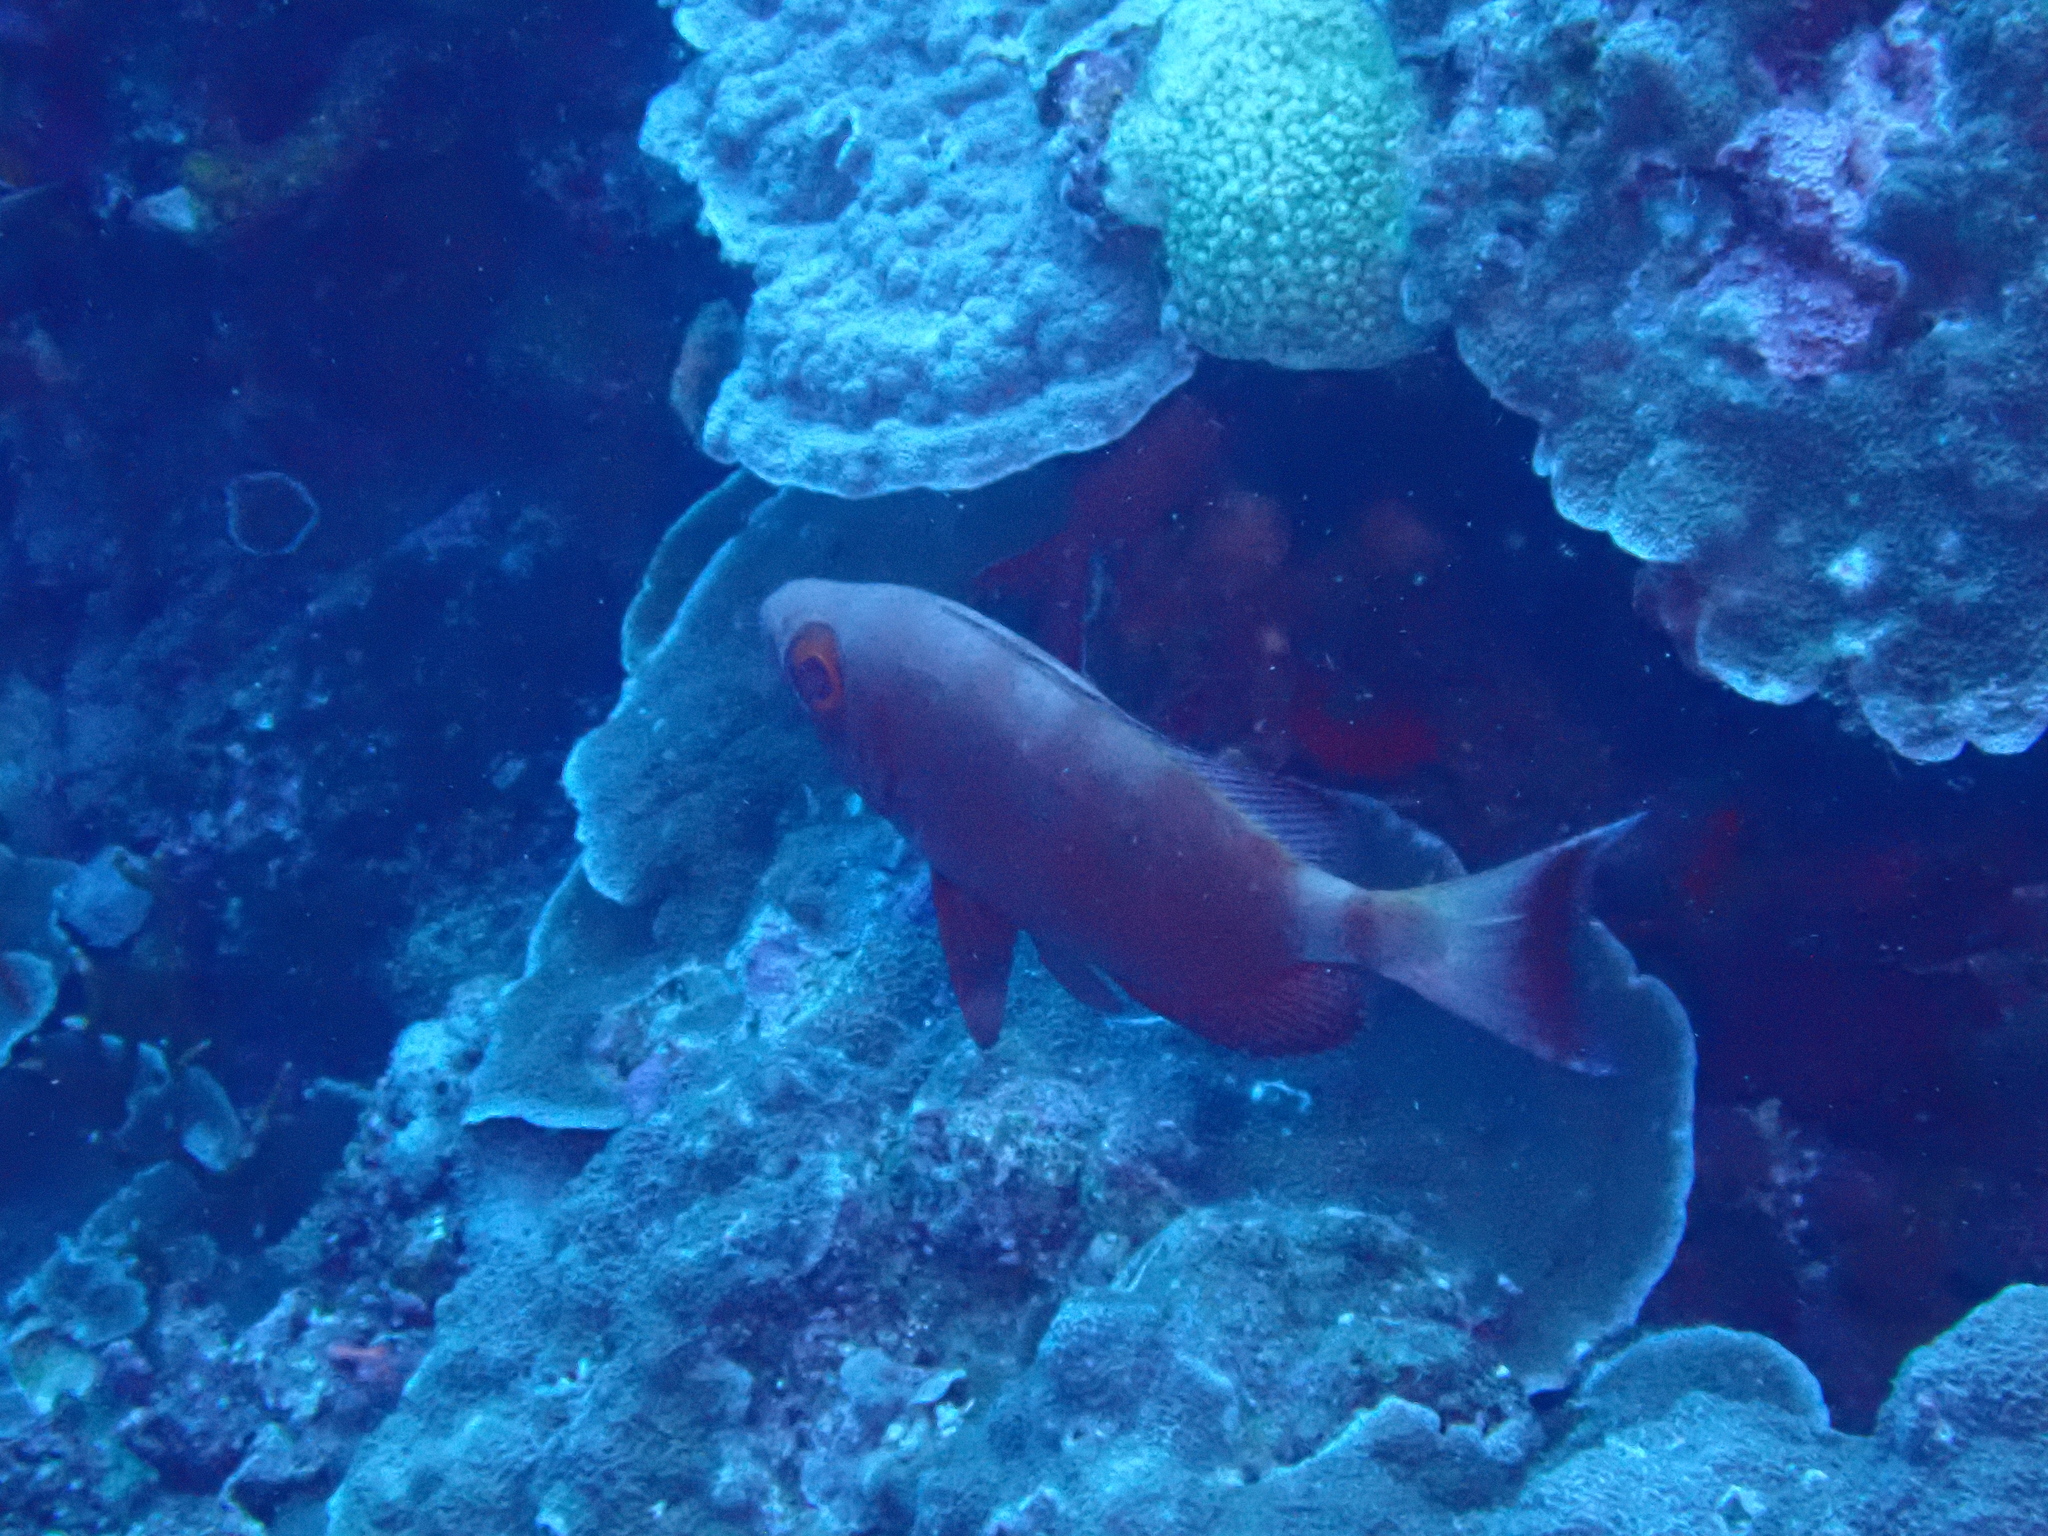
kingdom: Animalia
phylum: Chordata
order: Perciformes
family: Priacanthidae
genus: Priacanthus
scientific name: Priacanthus hamrur
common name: Moontail bullseye
